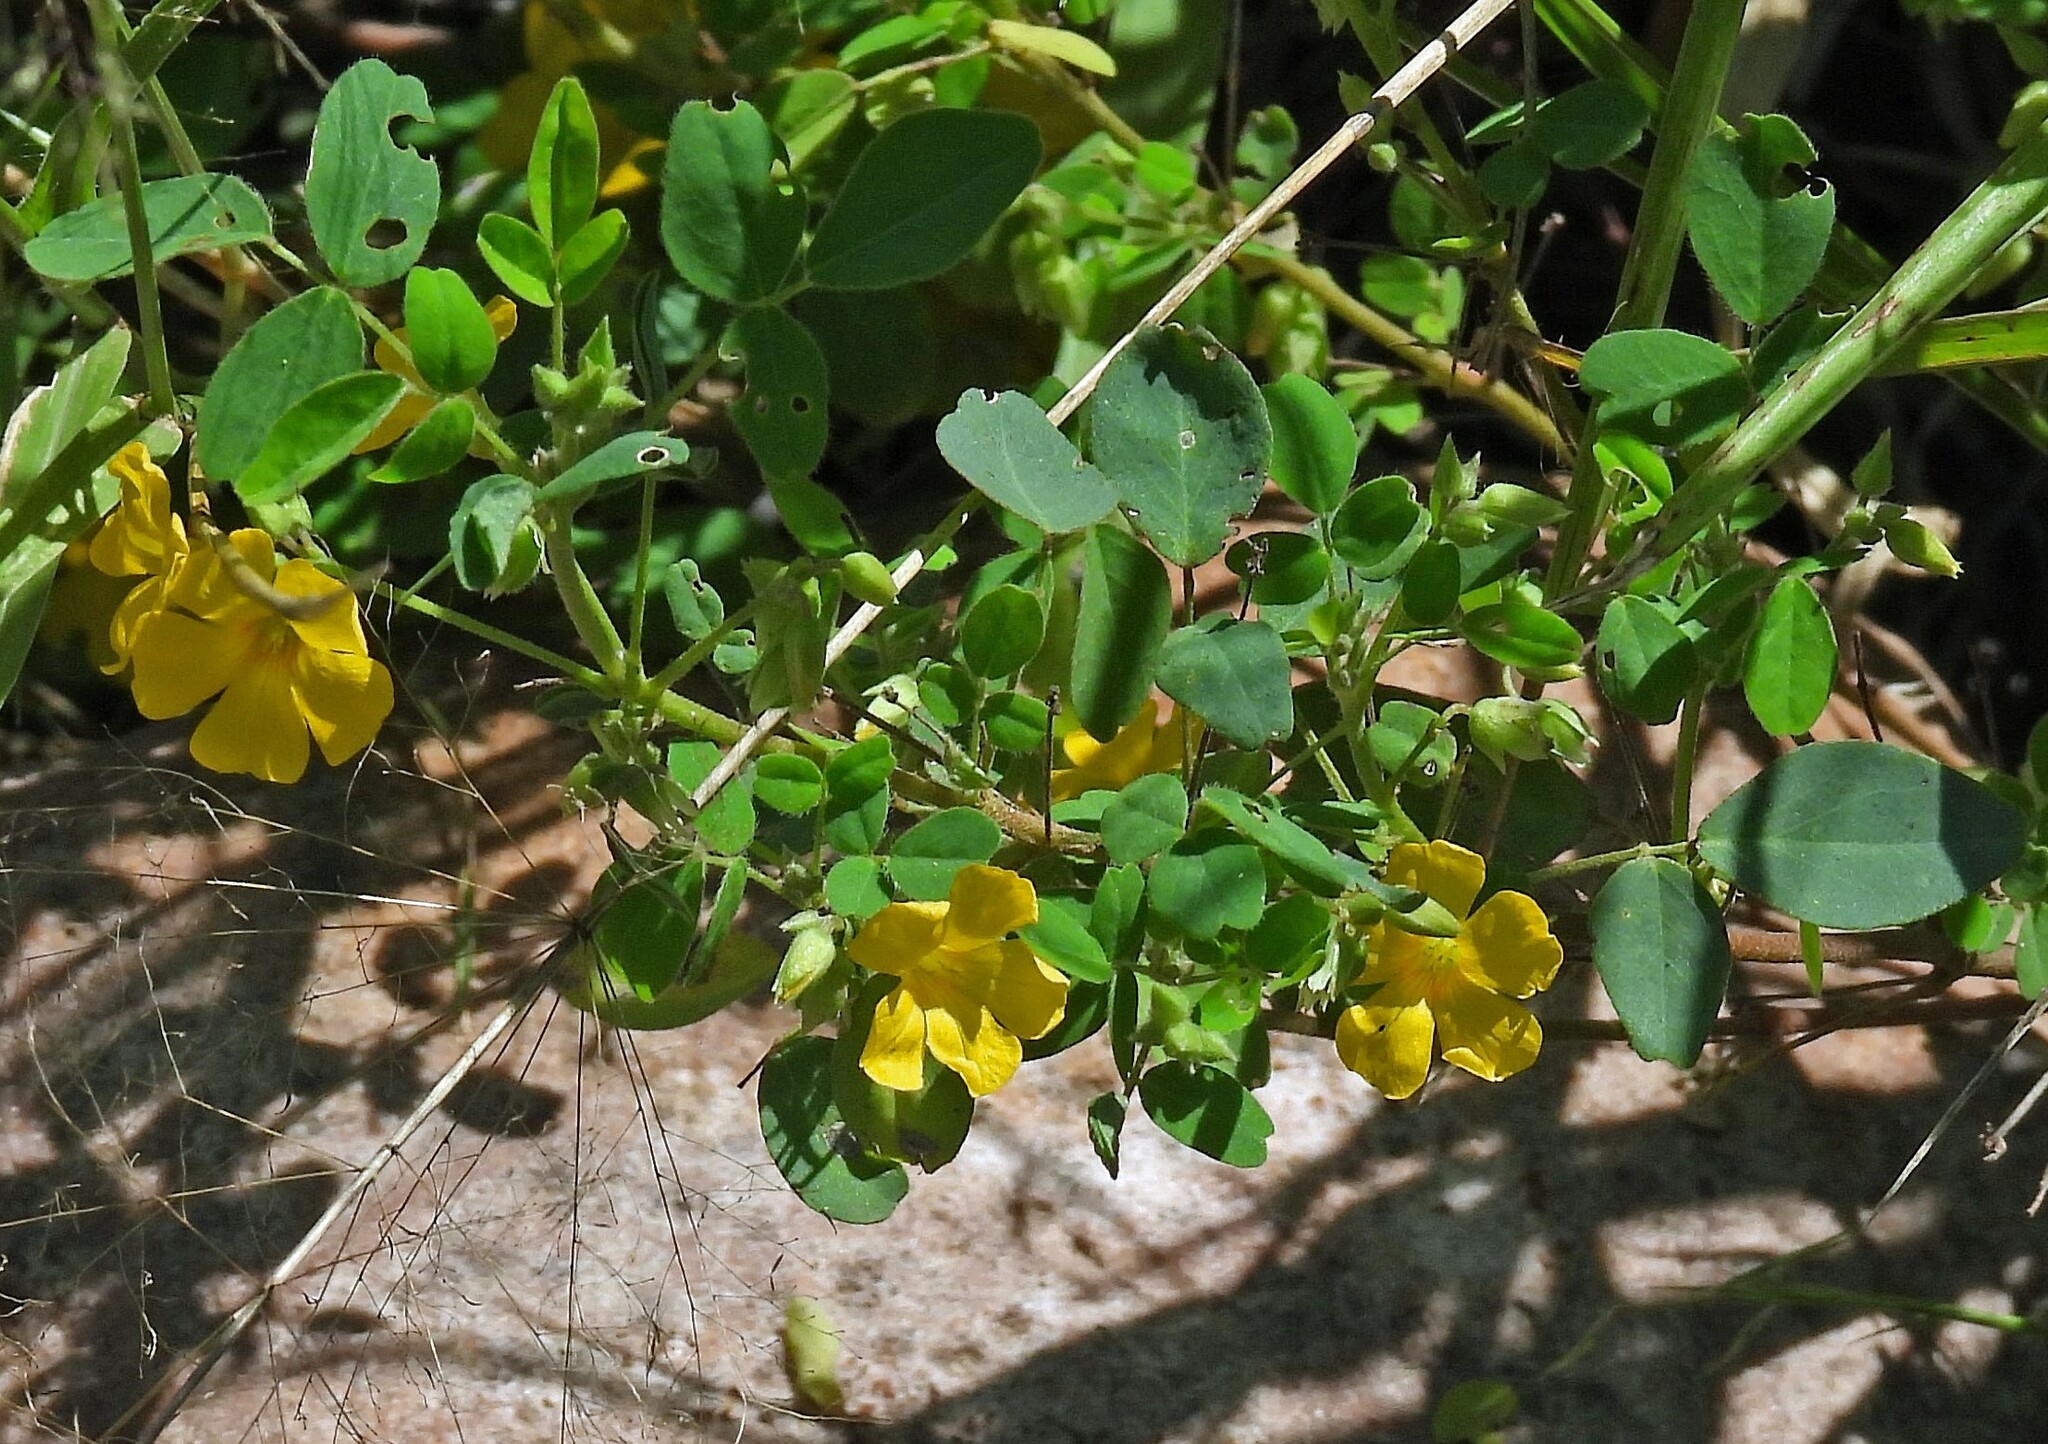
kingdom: Plantae
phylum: Tracheophyta
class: Magnoliopsida
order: Oxalidales
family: Oxalidaceae
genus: Oxalis
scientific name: Oxalis frutescens
